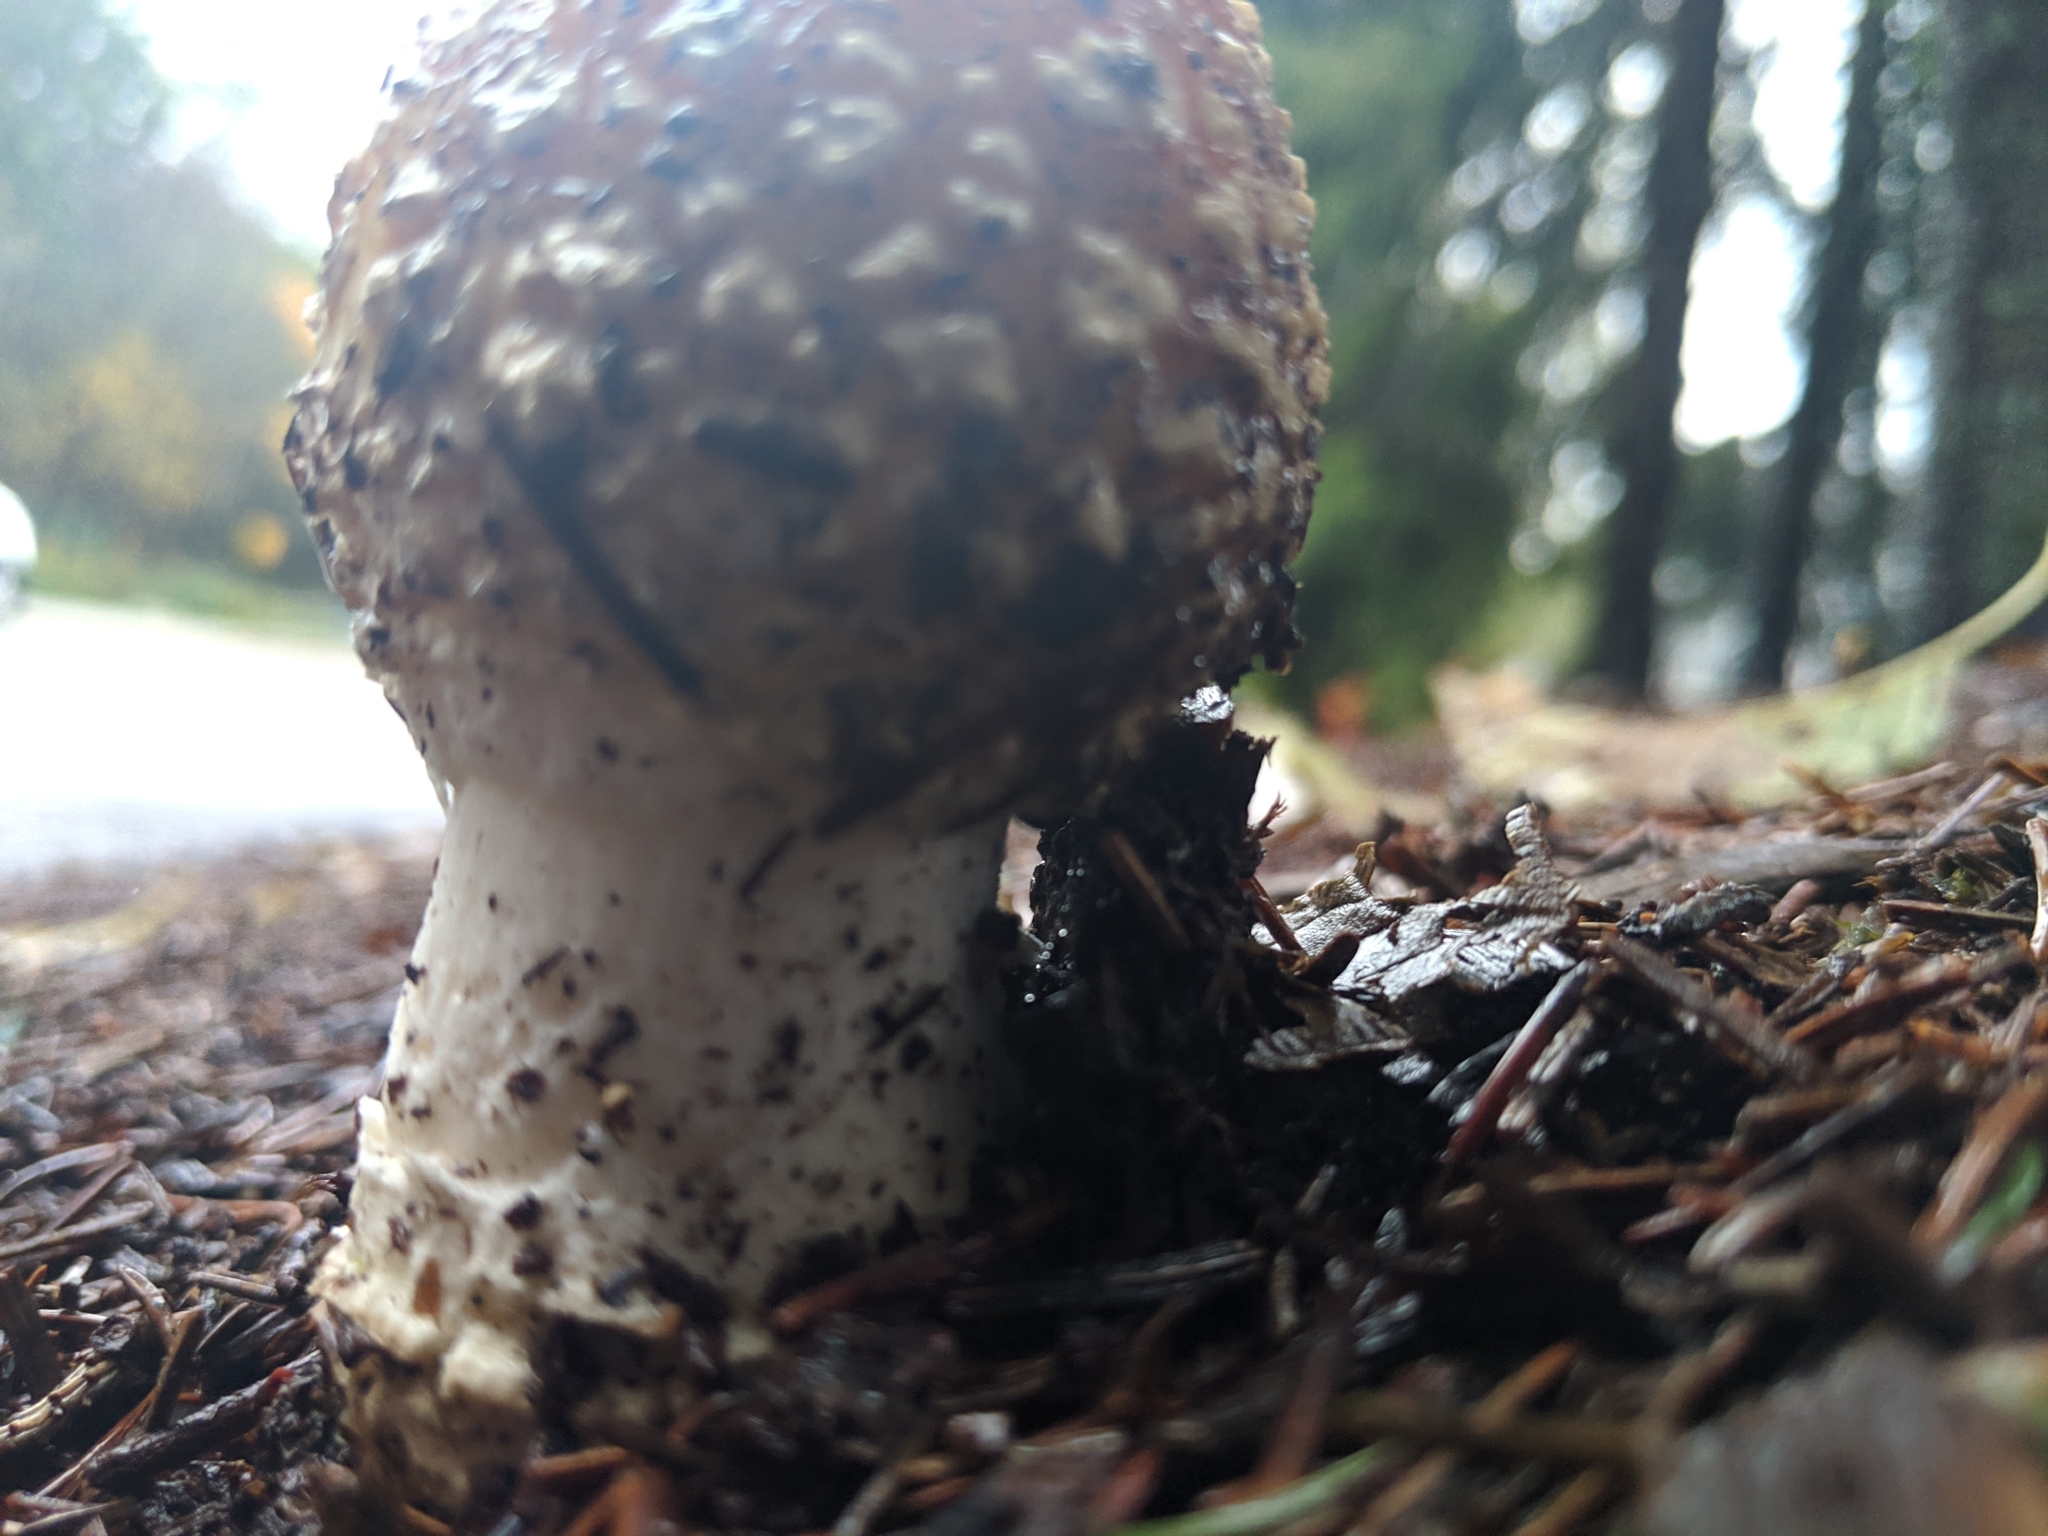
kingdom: Fungi
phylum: Basidiomycota
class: Agaricomycetes
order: Agaricales
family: Amanitaceae
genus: Amanita
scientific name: Amanita muscaria
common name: Fly agaric
